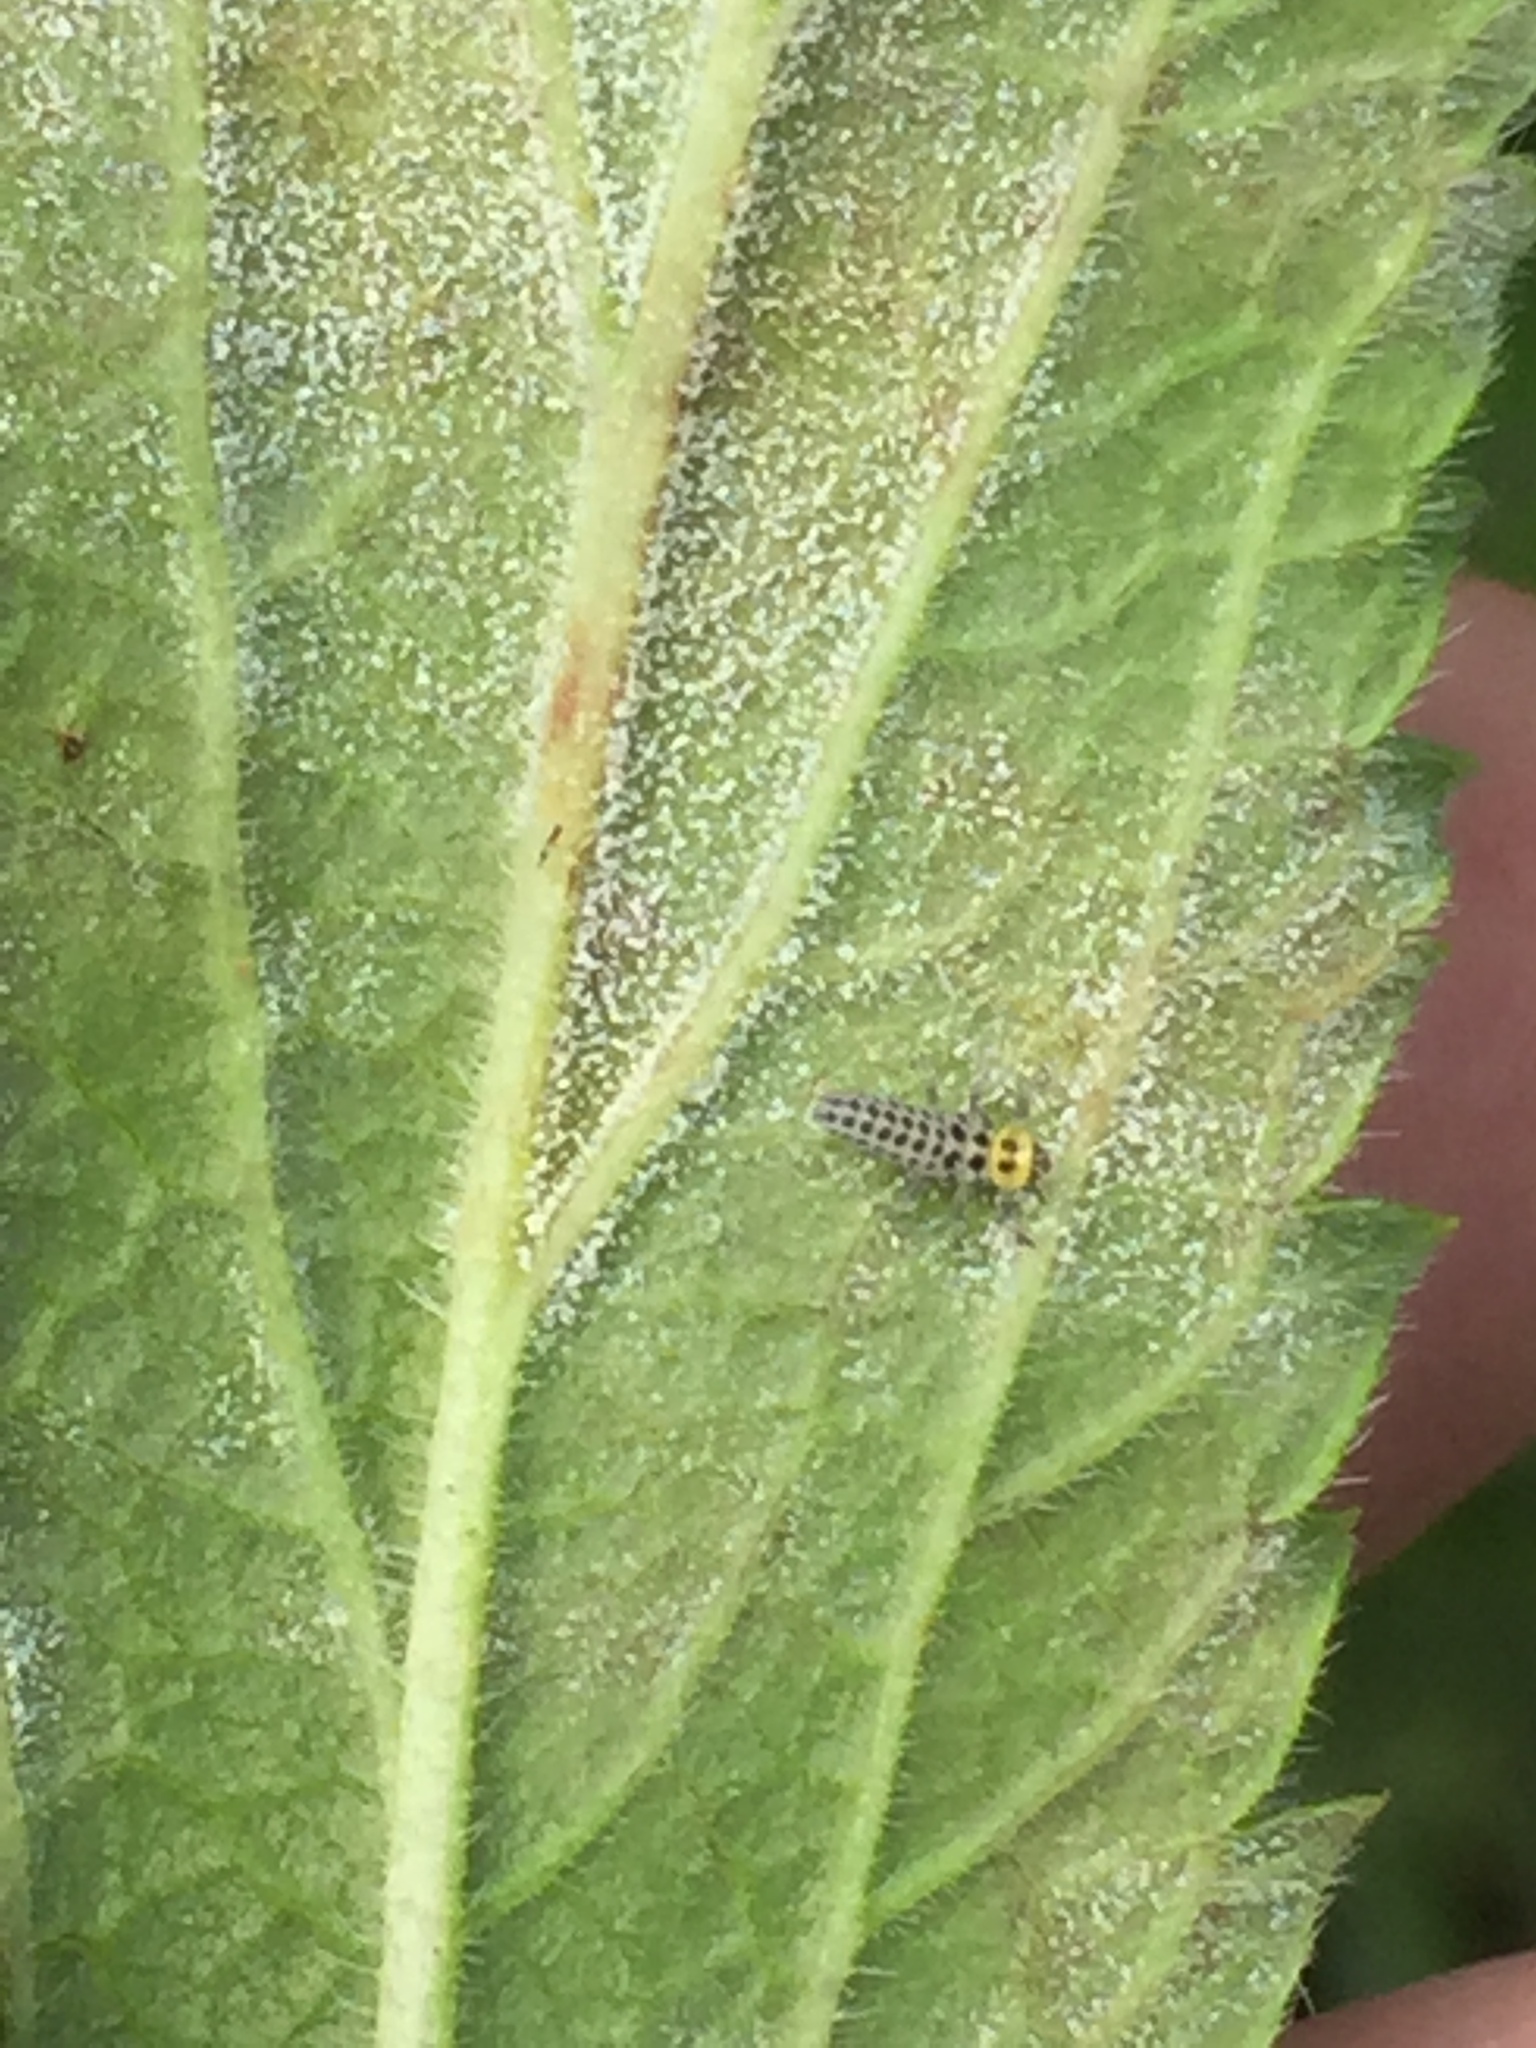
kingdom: Animalia
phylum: Arthropoda
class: Insecta
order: Coleoptera
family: Coccinellidae
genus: Illeis
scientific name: Illeis galbula
